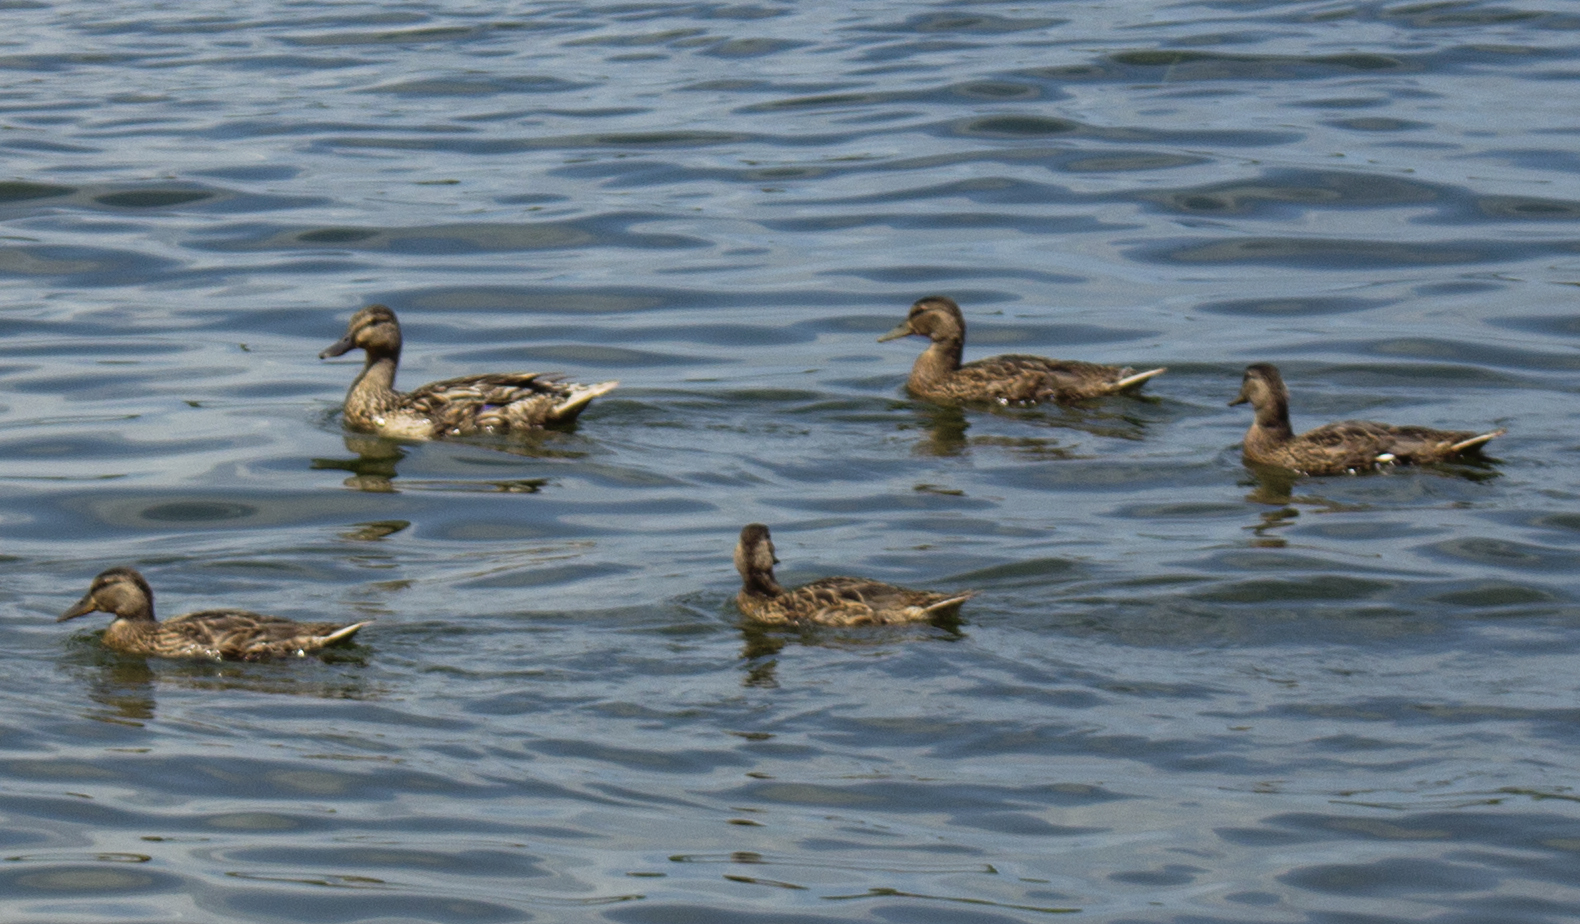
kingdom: Animalia
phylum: Chordata
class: Aves
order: Anseriformes
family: Anatidae
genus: Anas
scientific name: Anas platyrhynchos
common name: Mallard
